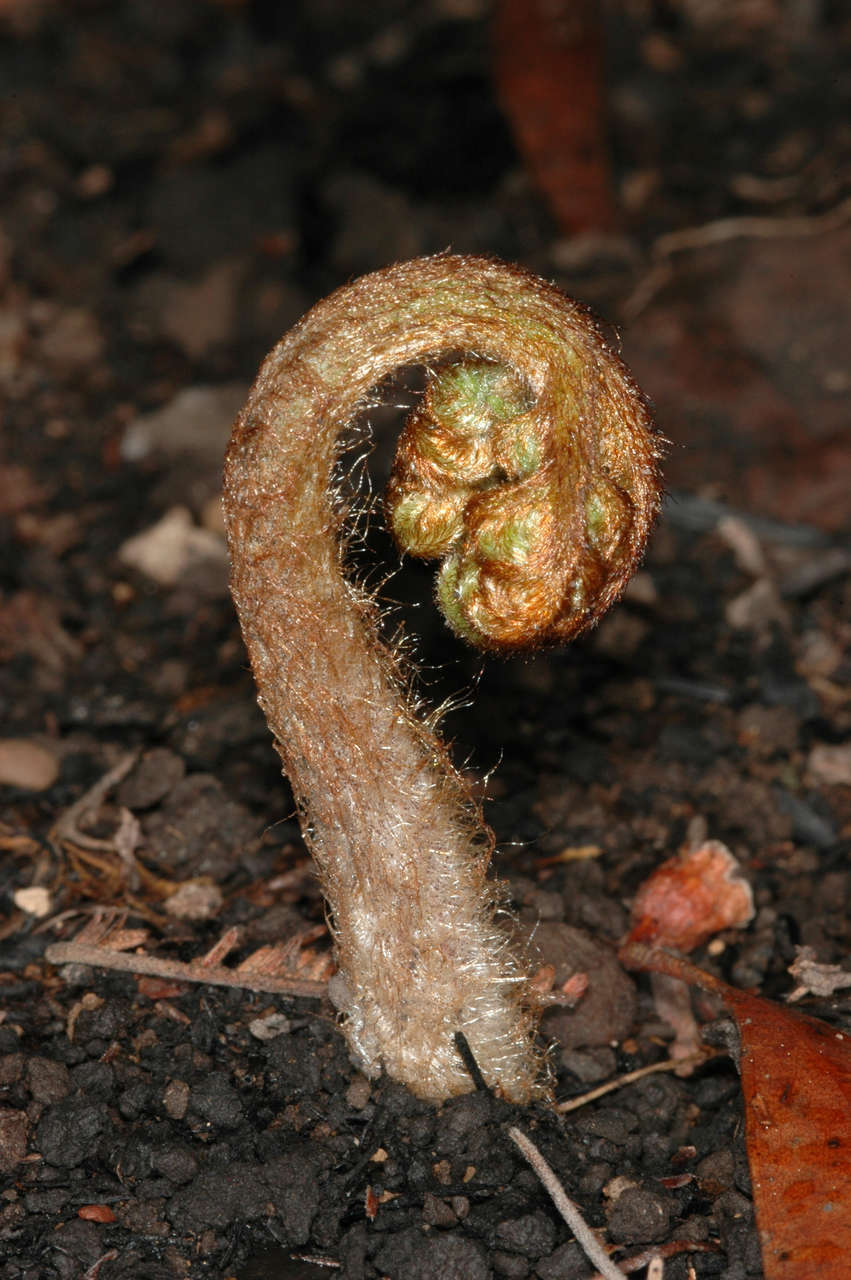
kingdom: Plantae
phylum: Tracheophyta
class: Polypodiopsida
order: Polypodiales
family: Dennstaedtiaceae
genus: Pteridium
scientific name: Pteridium esculentum
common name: Bracken fern
